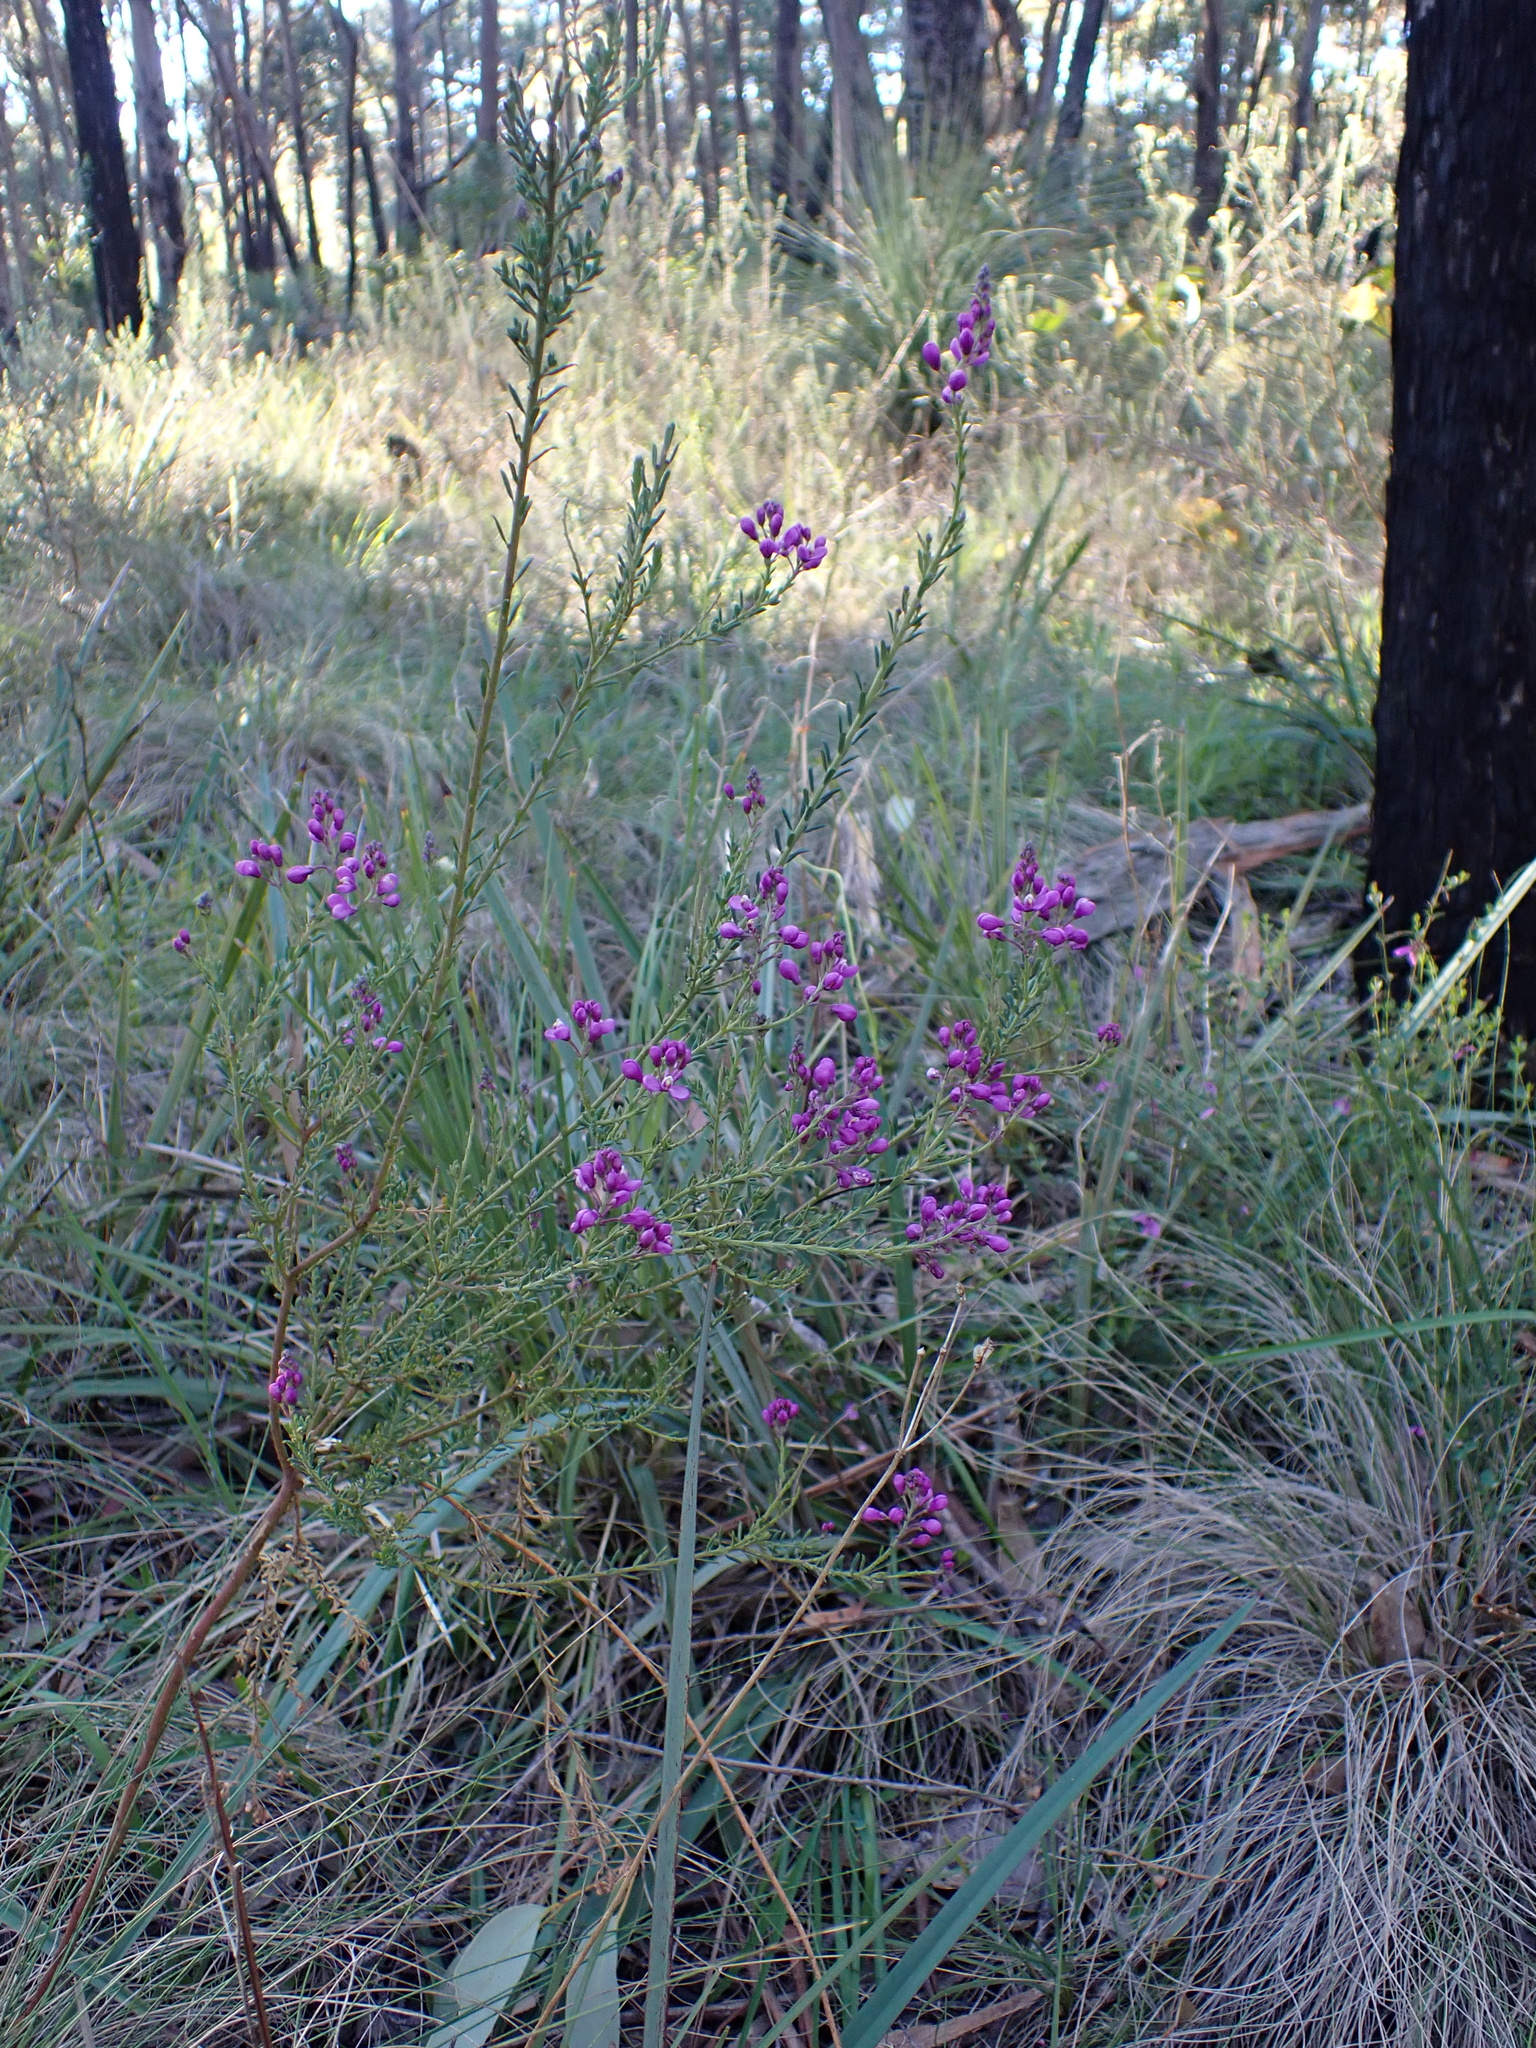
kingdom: Plantae
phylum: Tracheophyta
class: Magnoliopsida
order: Fabales
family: Polygalaceae
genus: Comesperma
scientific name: Comesperma ericinum
